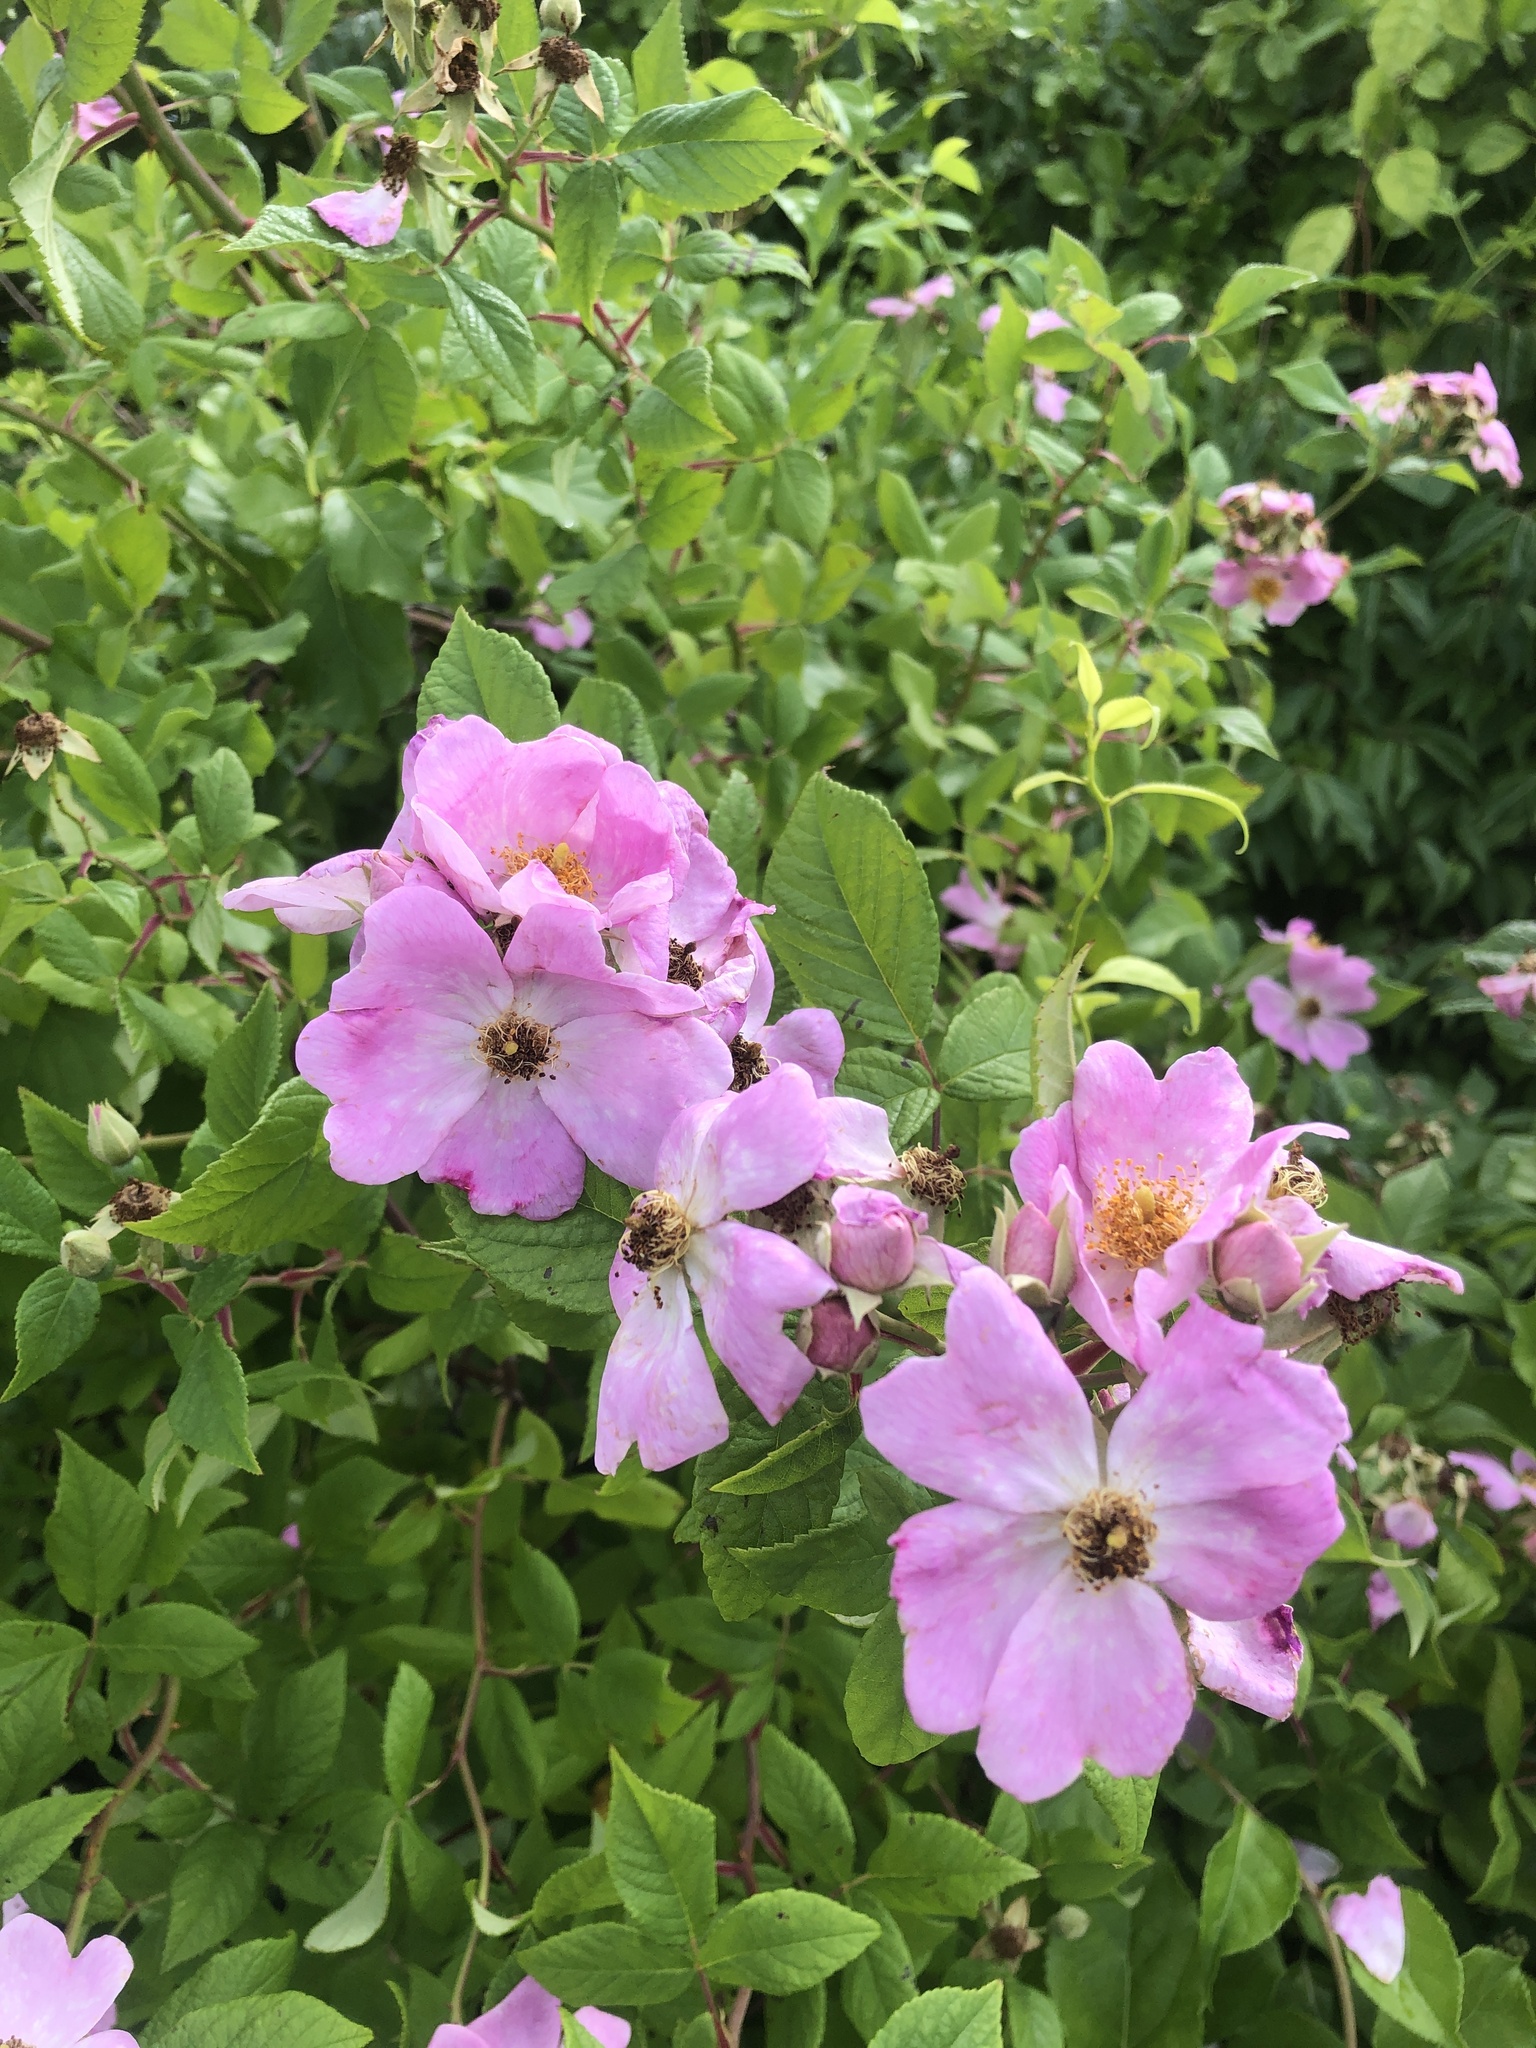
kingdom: Plantae
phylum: Tracheophyta
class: Magnoliopsida
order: Rosales
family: Rosaceae
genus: Rosa
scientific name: Rosa setigera
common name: Prairie rose
